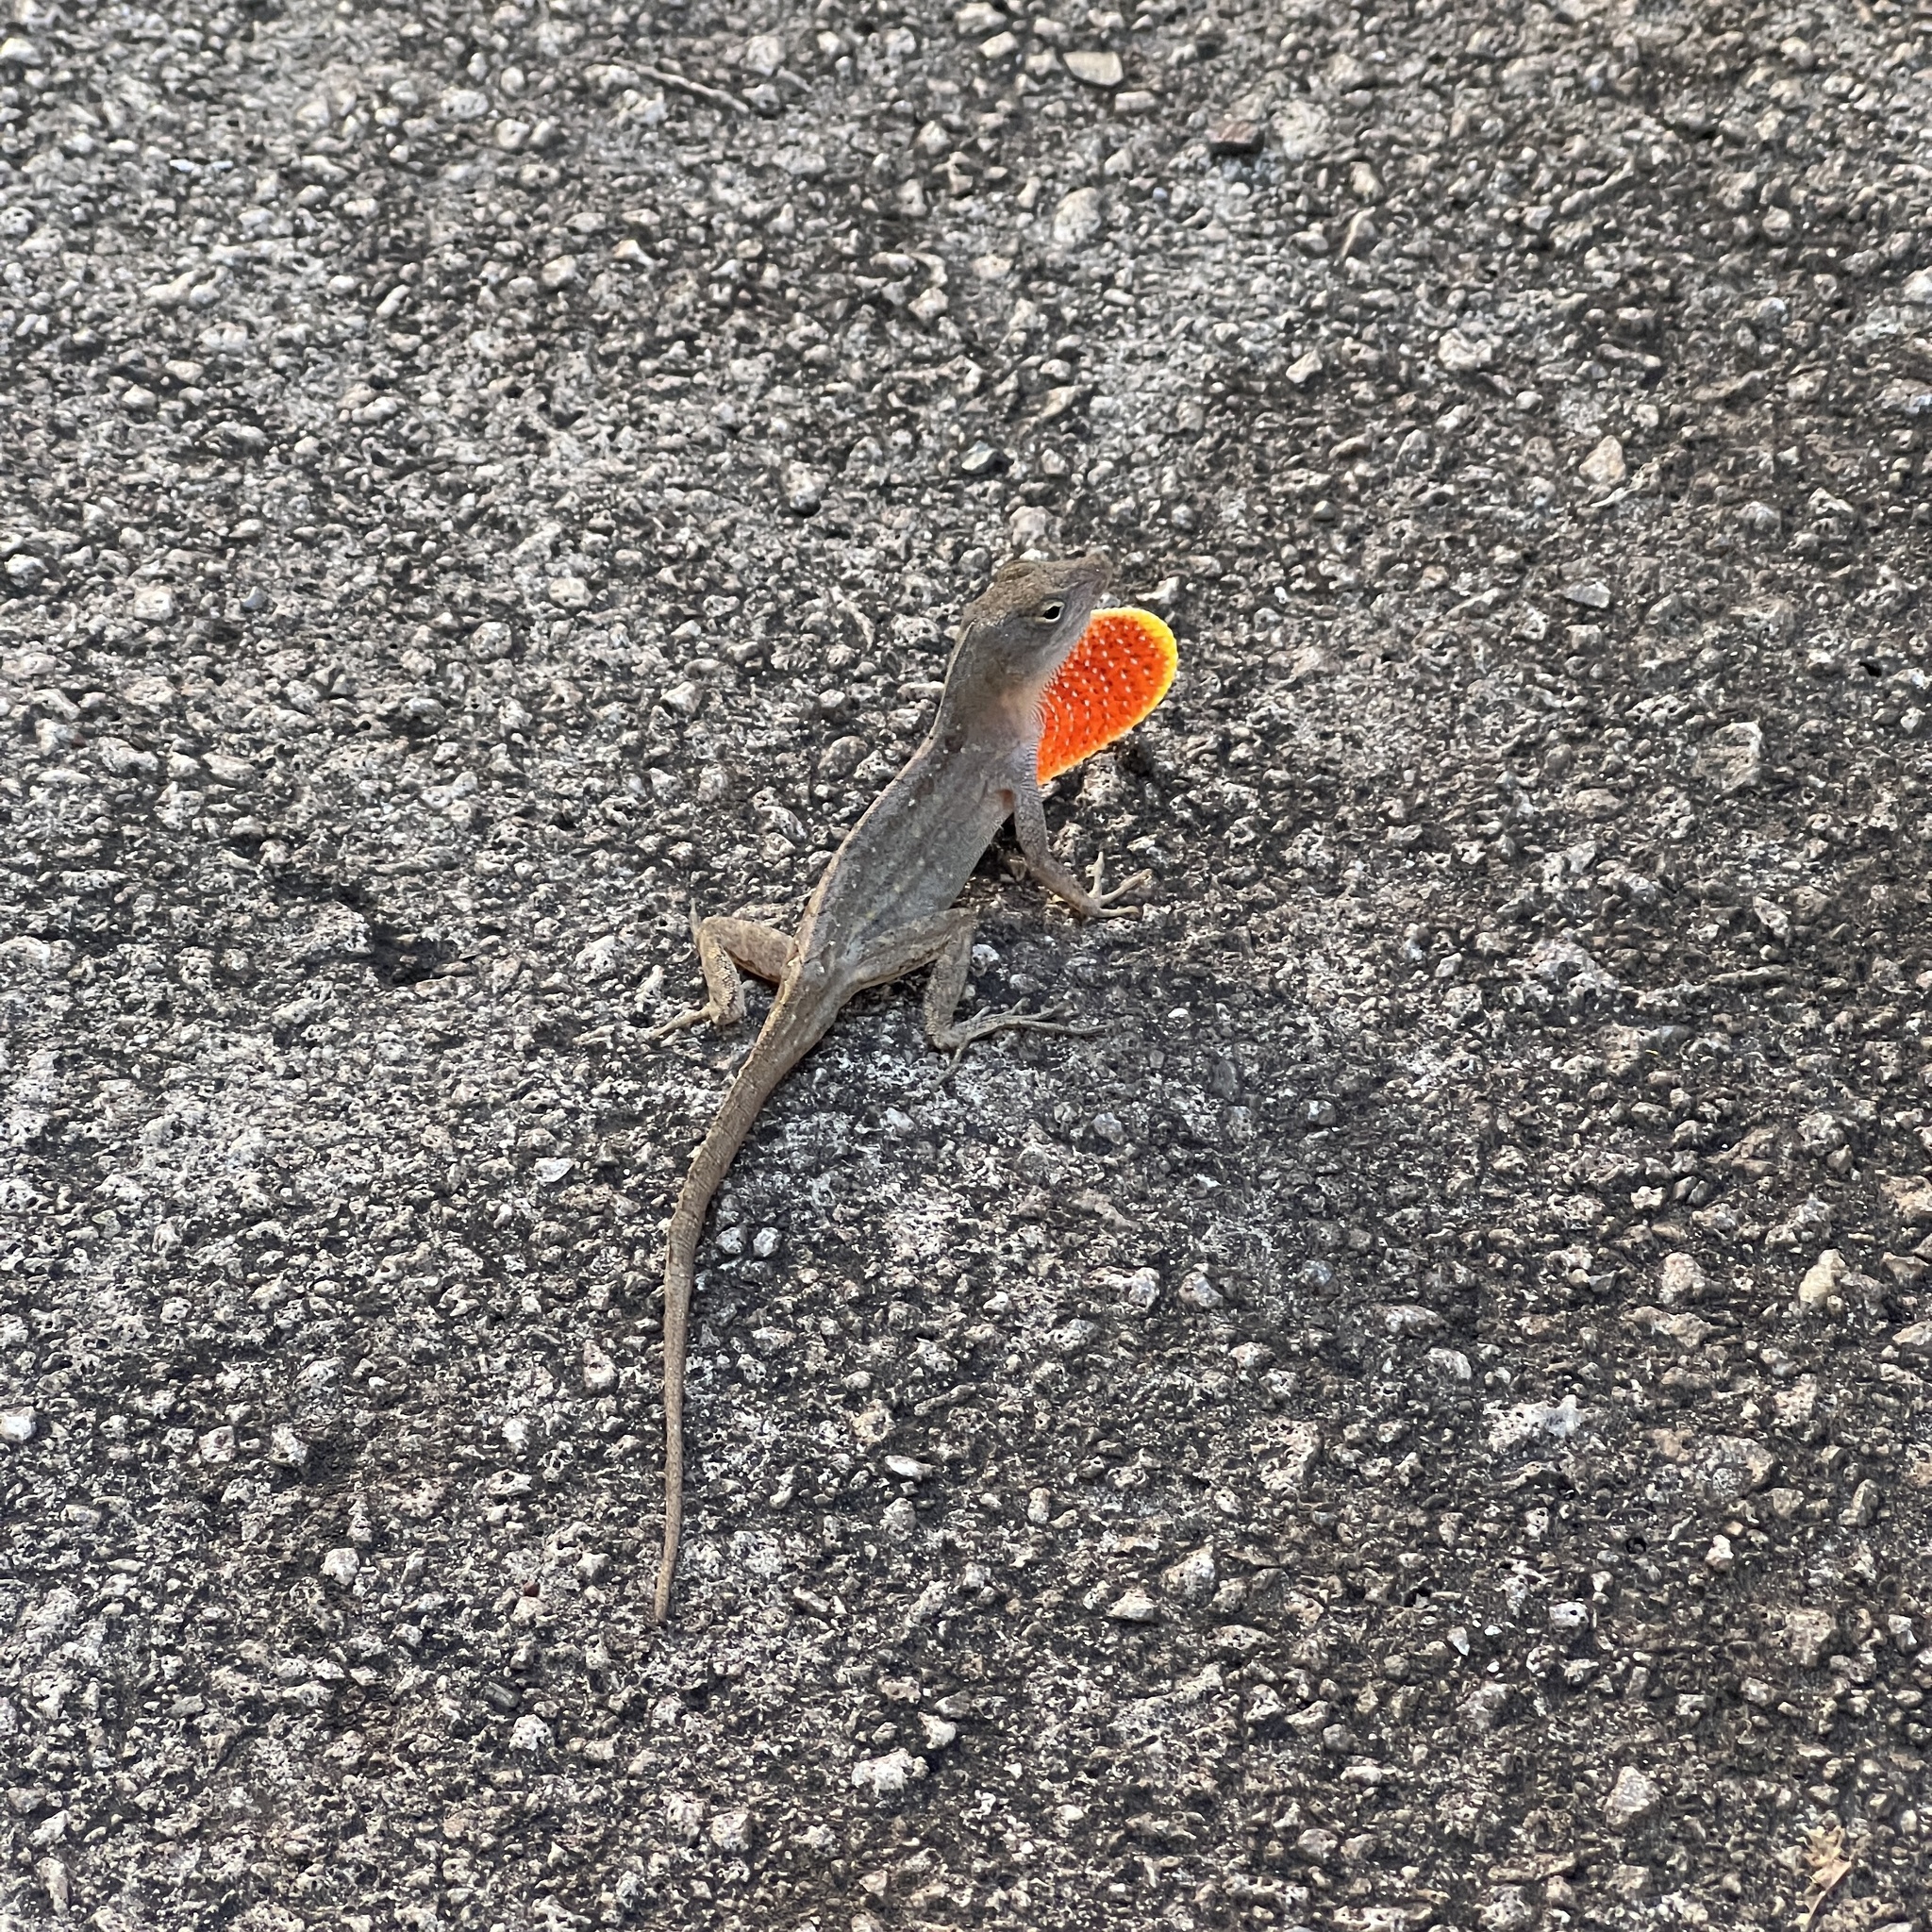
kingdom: Animalia
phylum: Chordata
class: Squamata
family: Dactyloidae
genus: Anolis
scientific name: Anolis sagrei
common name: Brown anole
